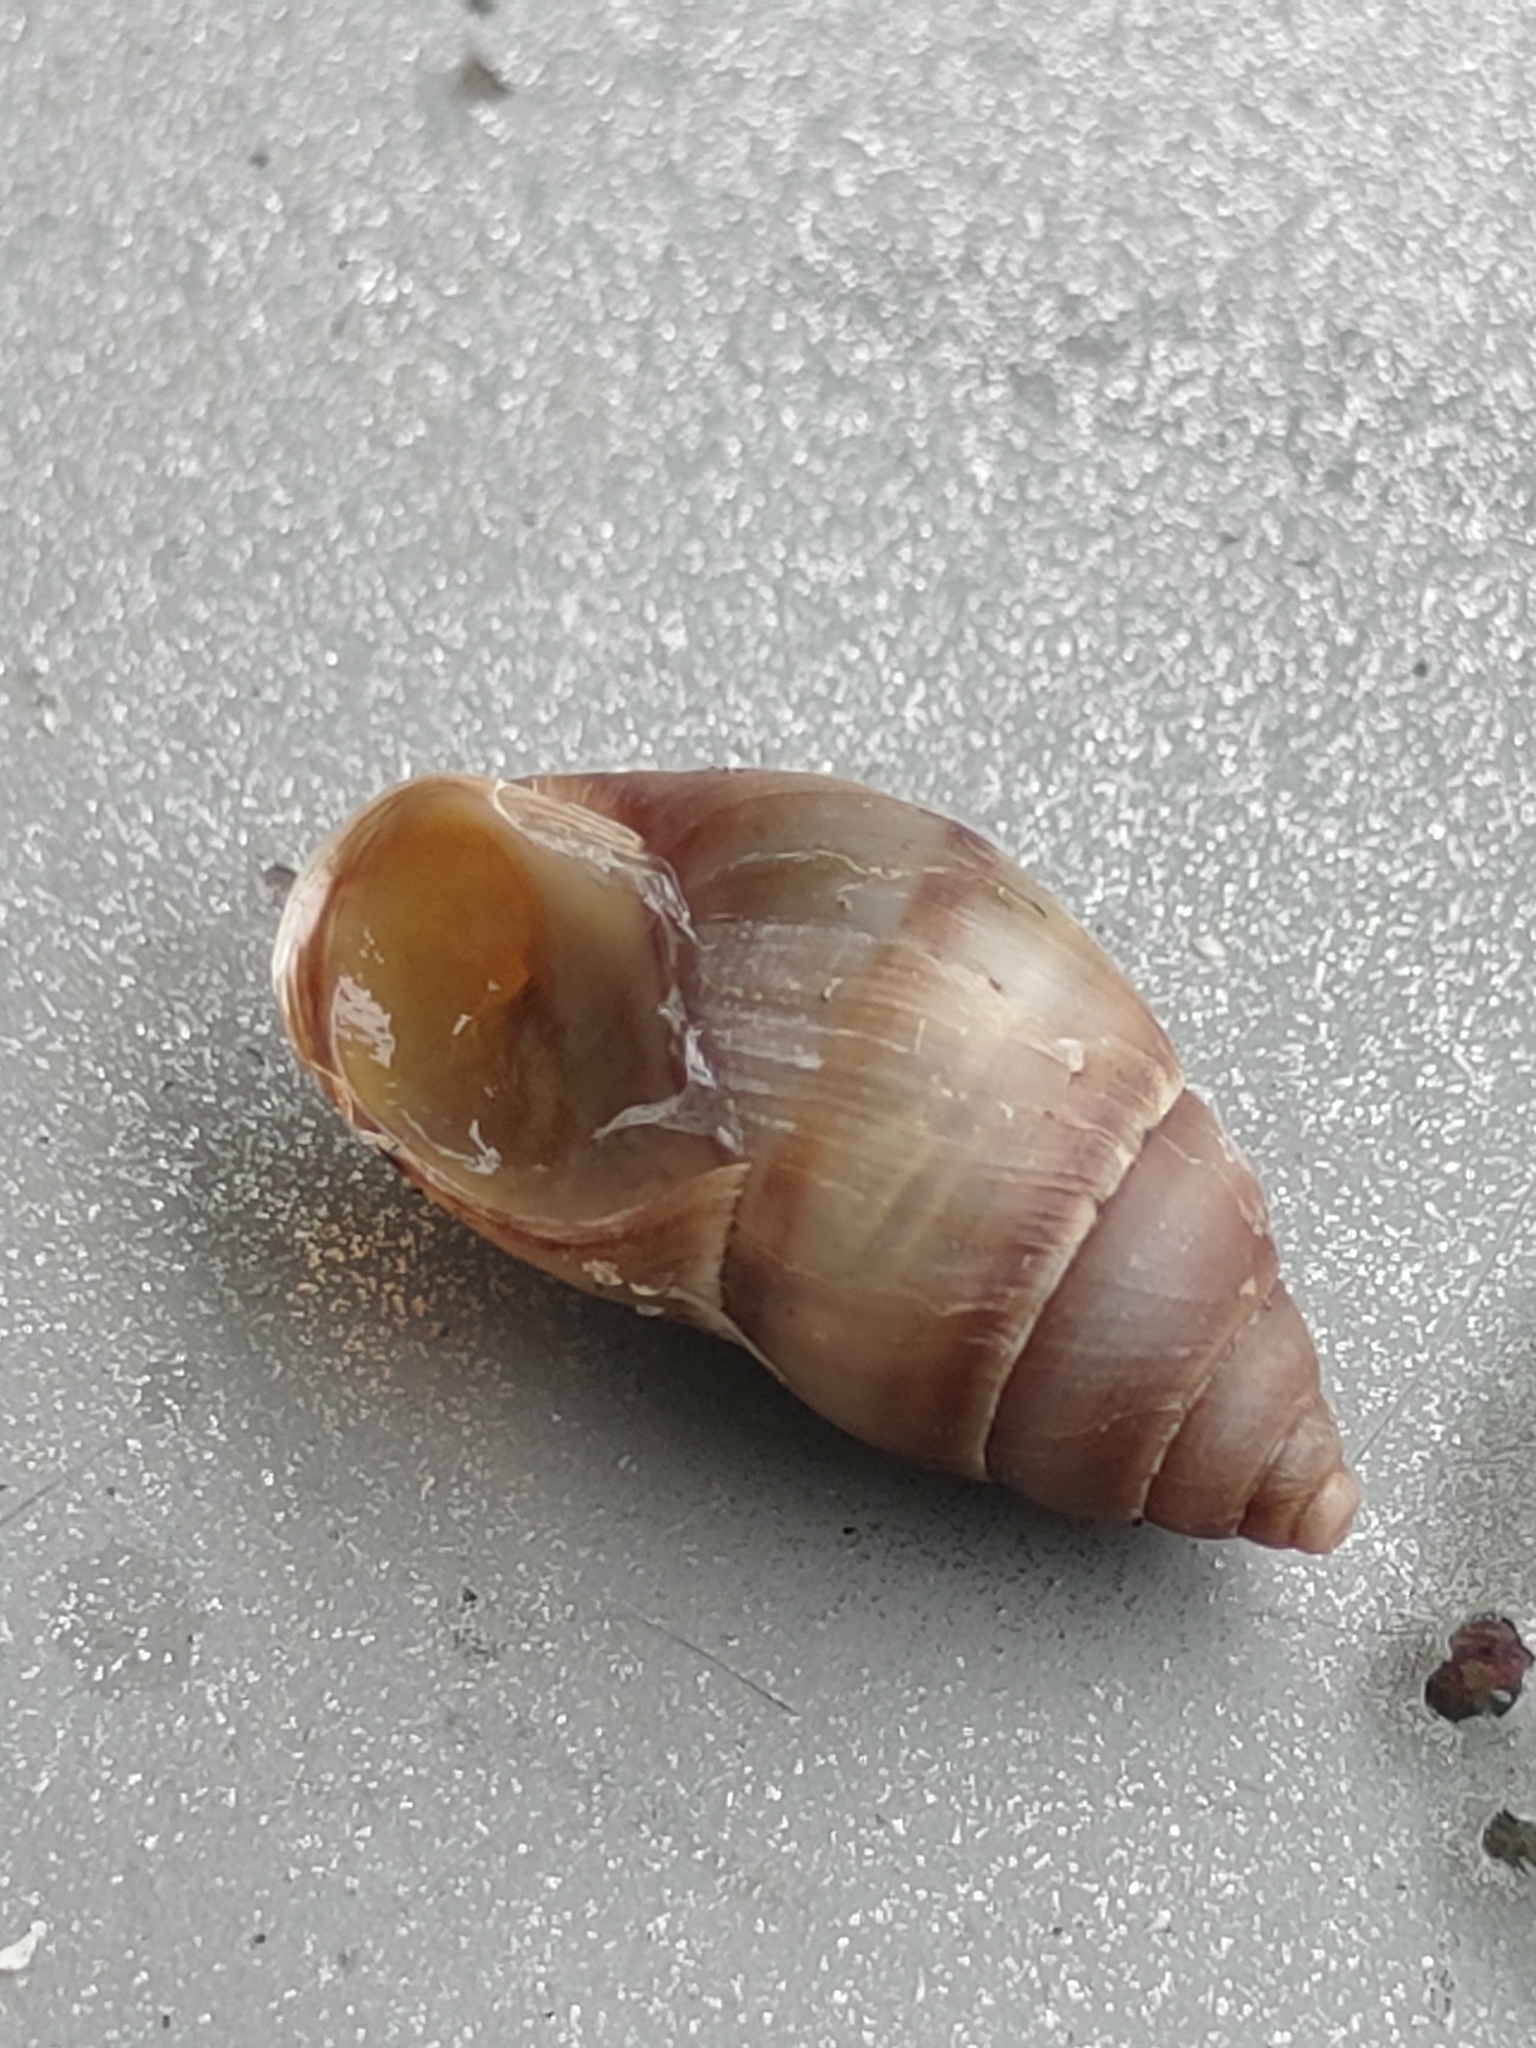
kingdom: Animalia
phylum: Mollusca
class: Gastropoda
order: Stylommatophora
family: Bulimulidae
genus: Bulimulus
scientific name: Bulimulus guadalupensis
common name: West indian bulimulus
